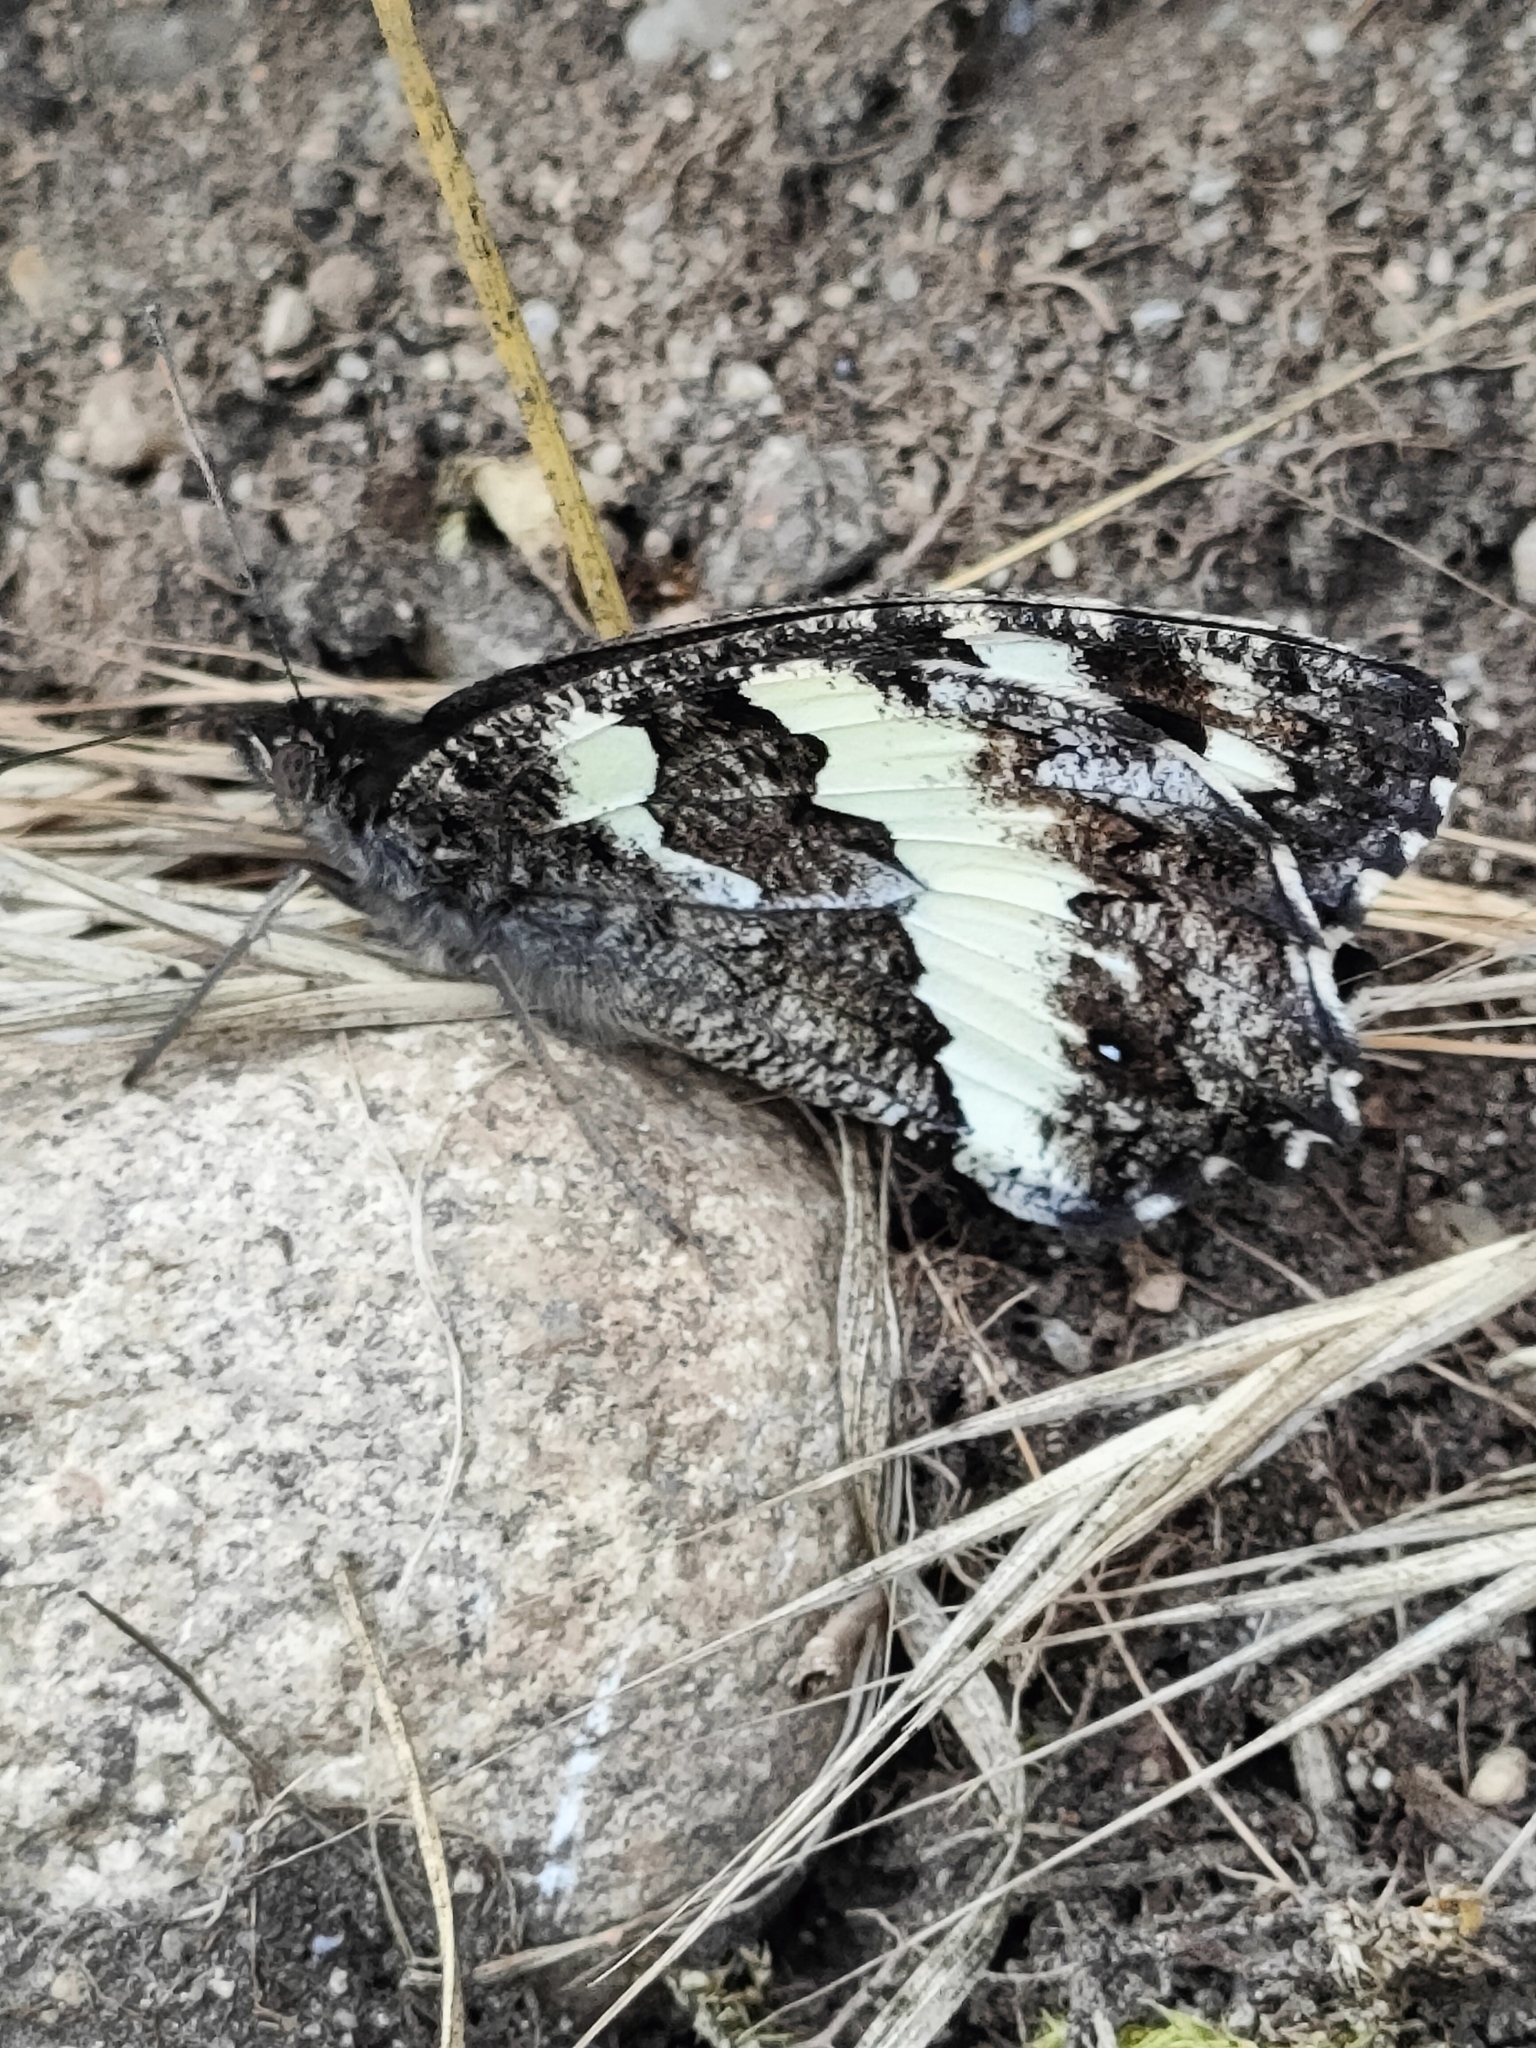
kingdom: Animalia
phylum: Arthropoda
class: Insecta
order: Lepidoptera
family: Lycaenidae
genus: Loweia
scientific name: Loweia tityrus
